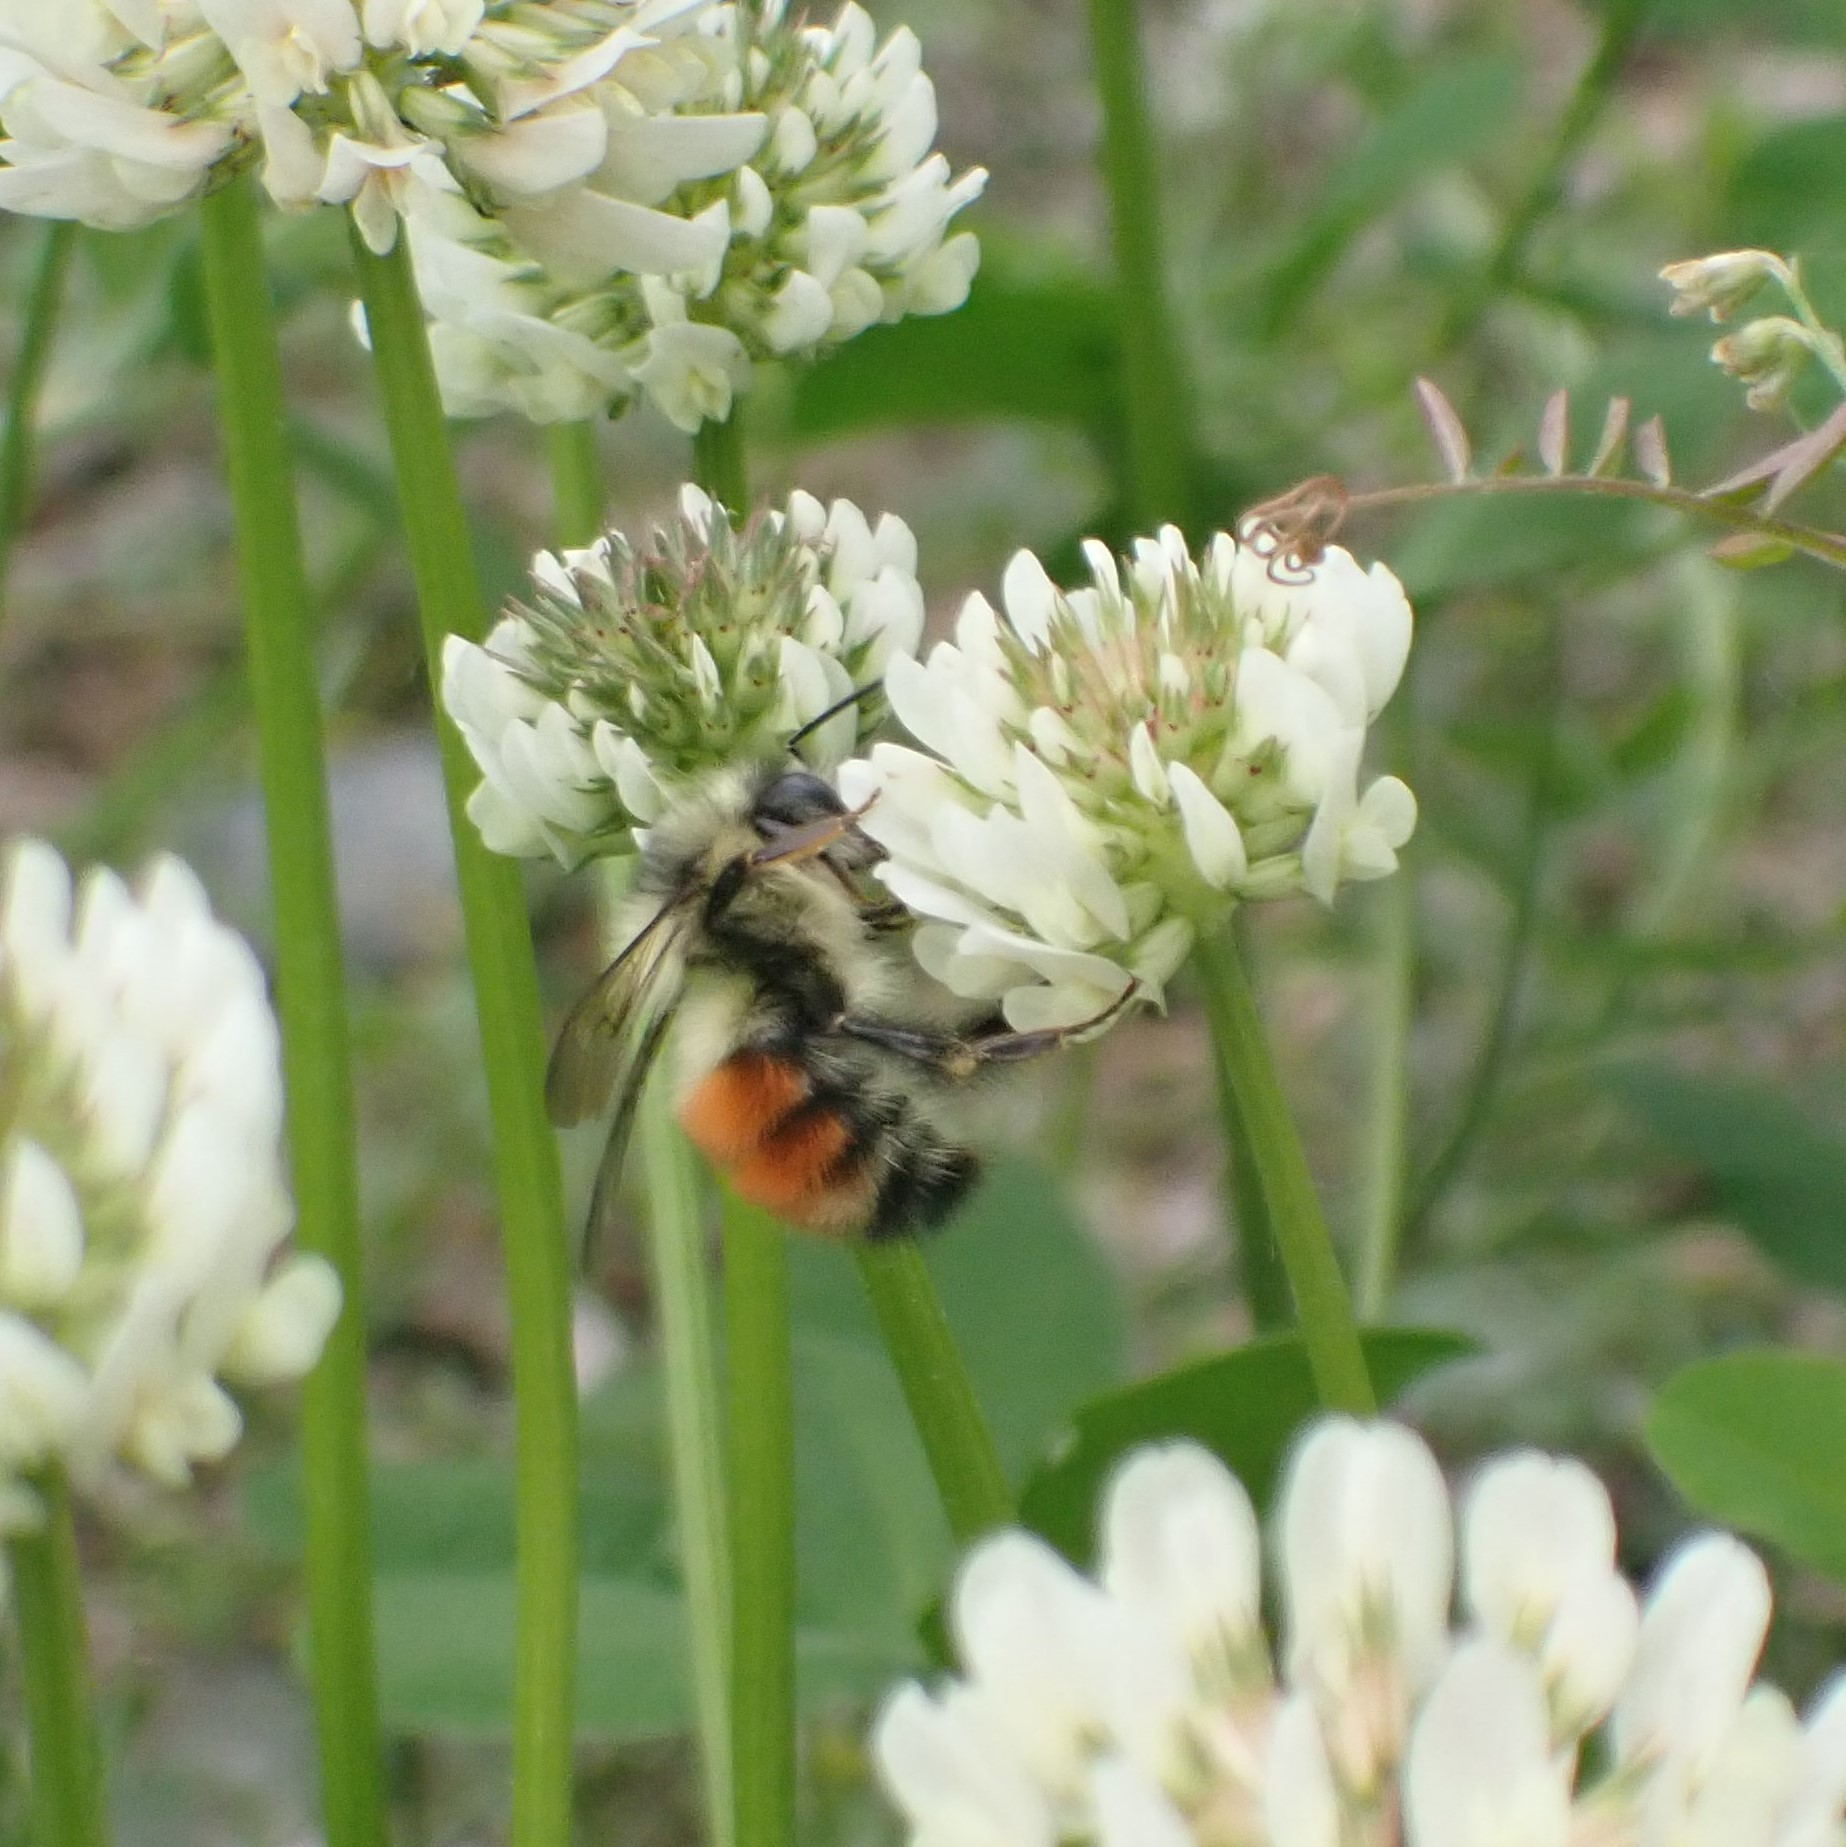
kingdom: Animalia
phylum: Arthropoda
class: Insecta
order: Hymenoptera
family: Apidae
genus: Bombus
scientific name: Bombus melanopygus
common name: Black tail bumble bee
